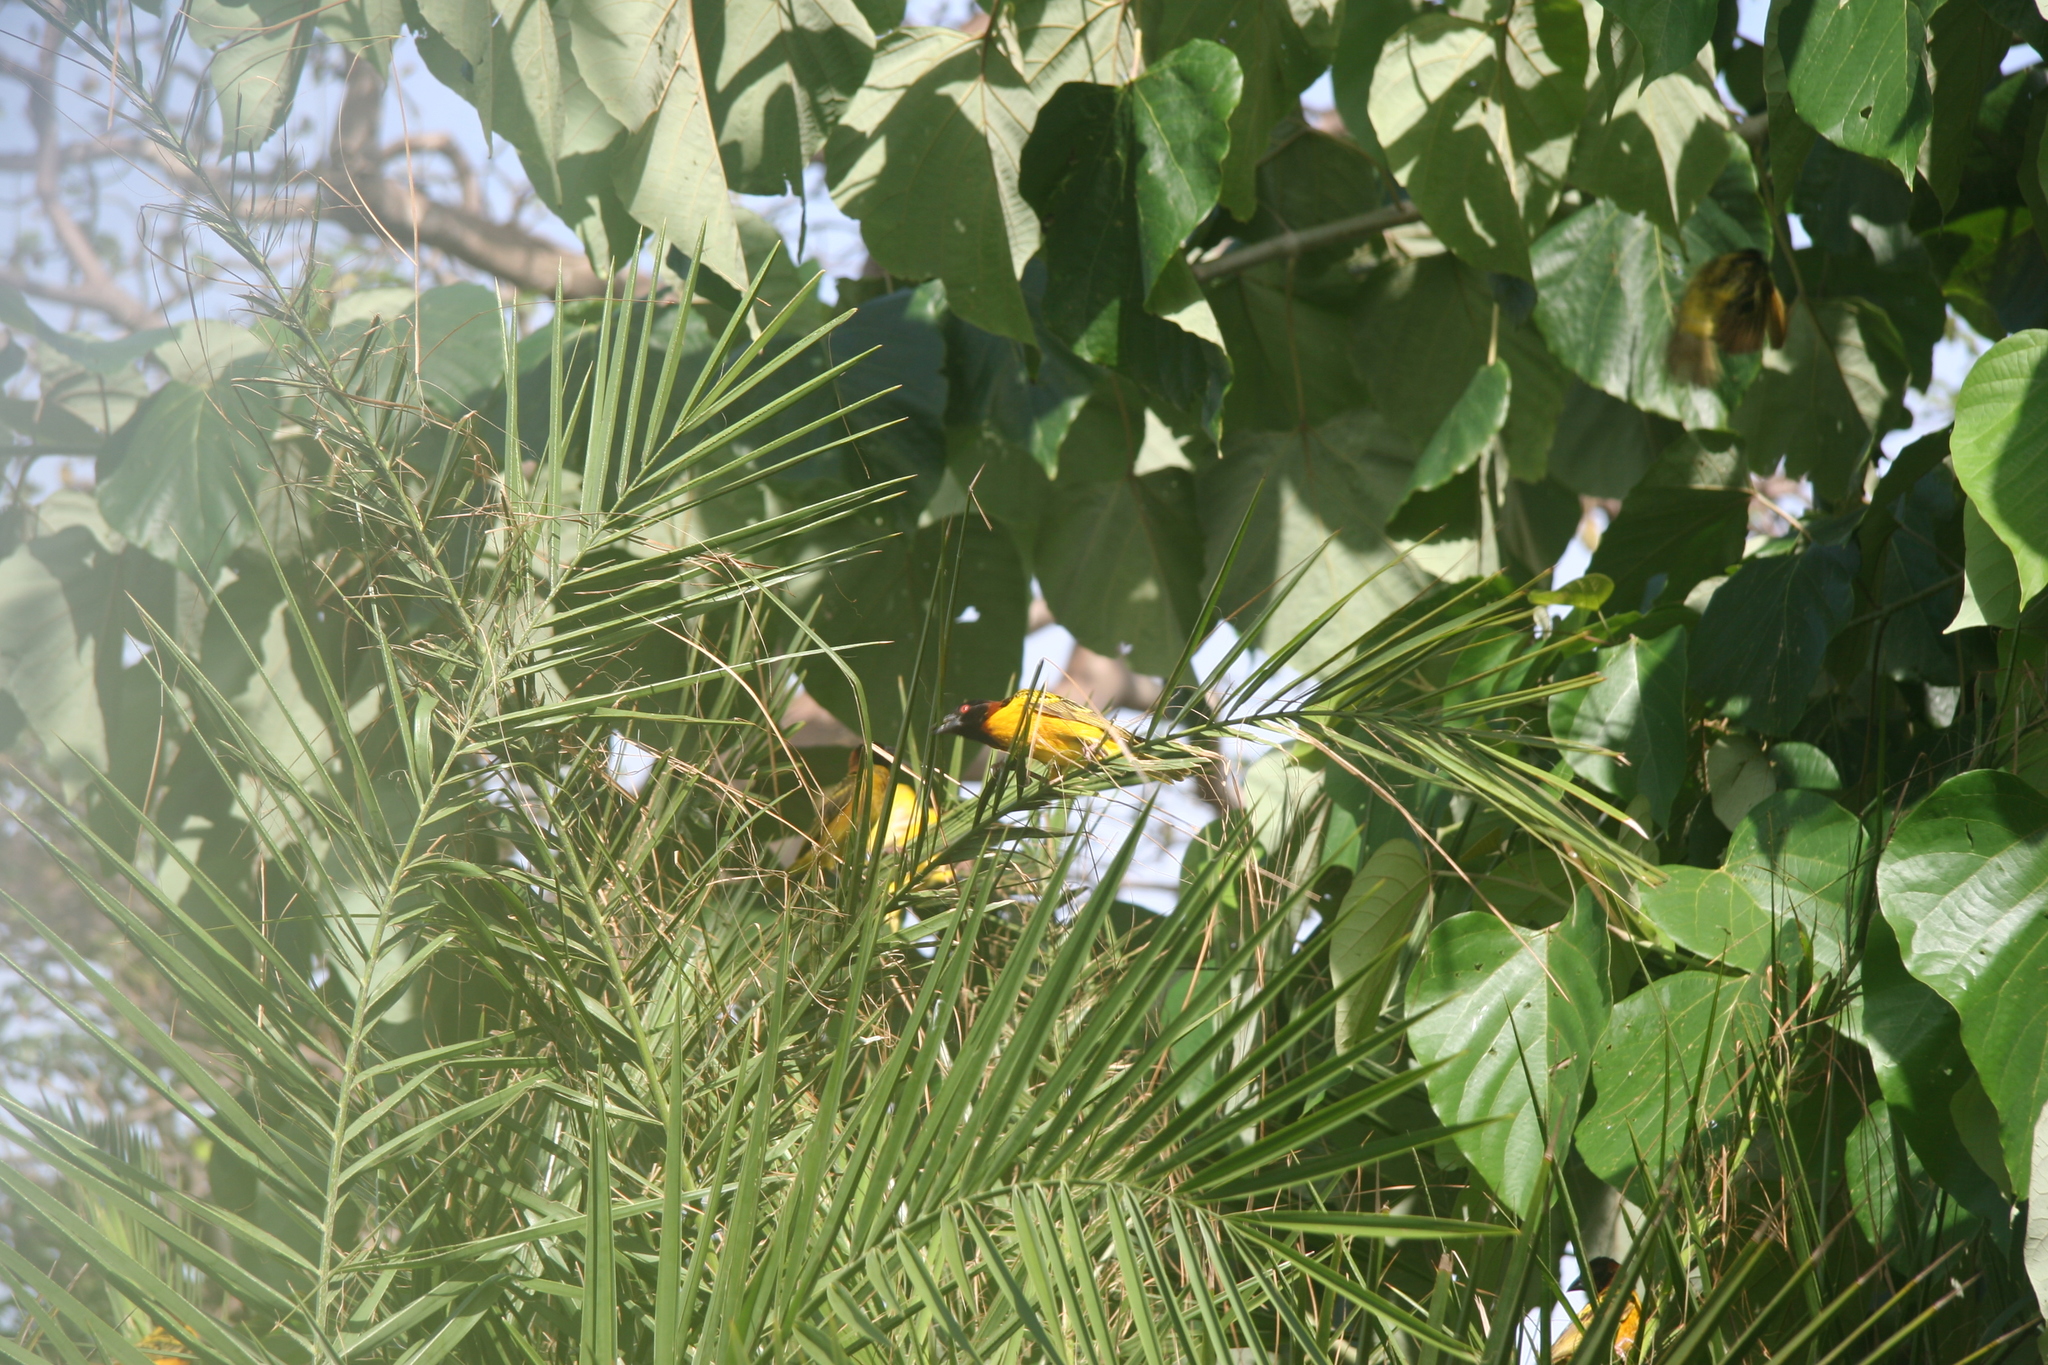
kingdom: Animalia
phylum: Chordata
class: Aves
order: Passeriformes
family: Ploceidae
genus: Ploceus
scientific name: Ploceus cucullatus
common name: Village weaver
